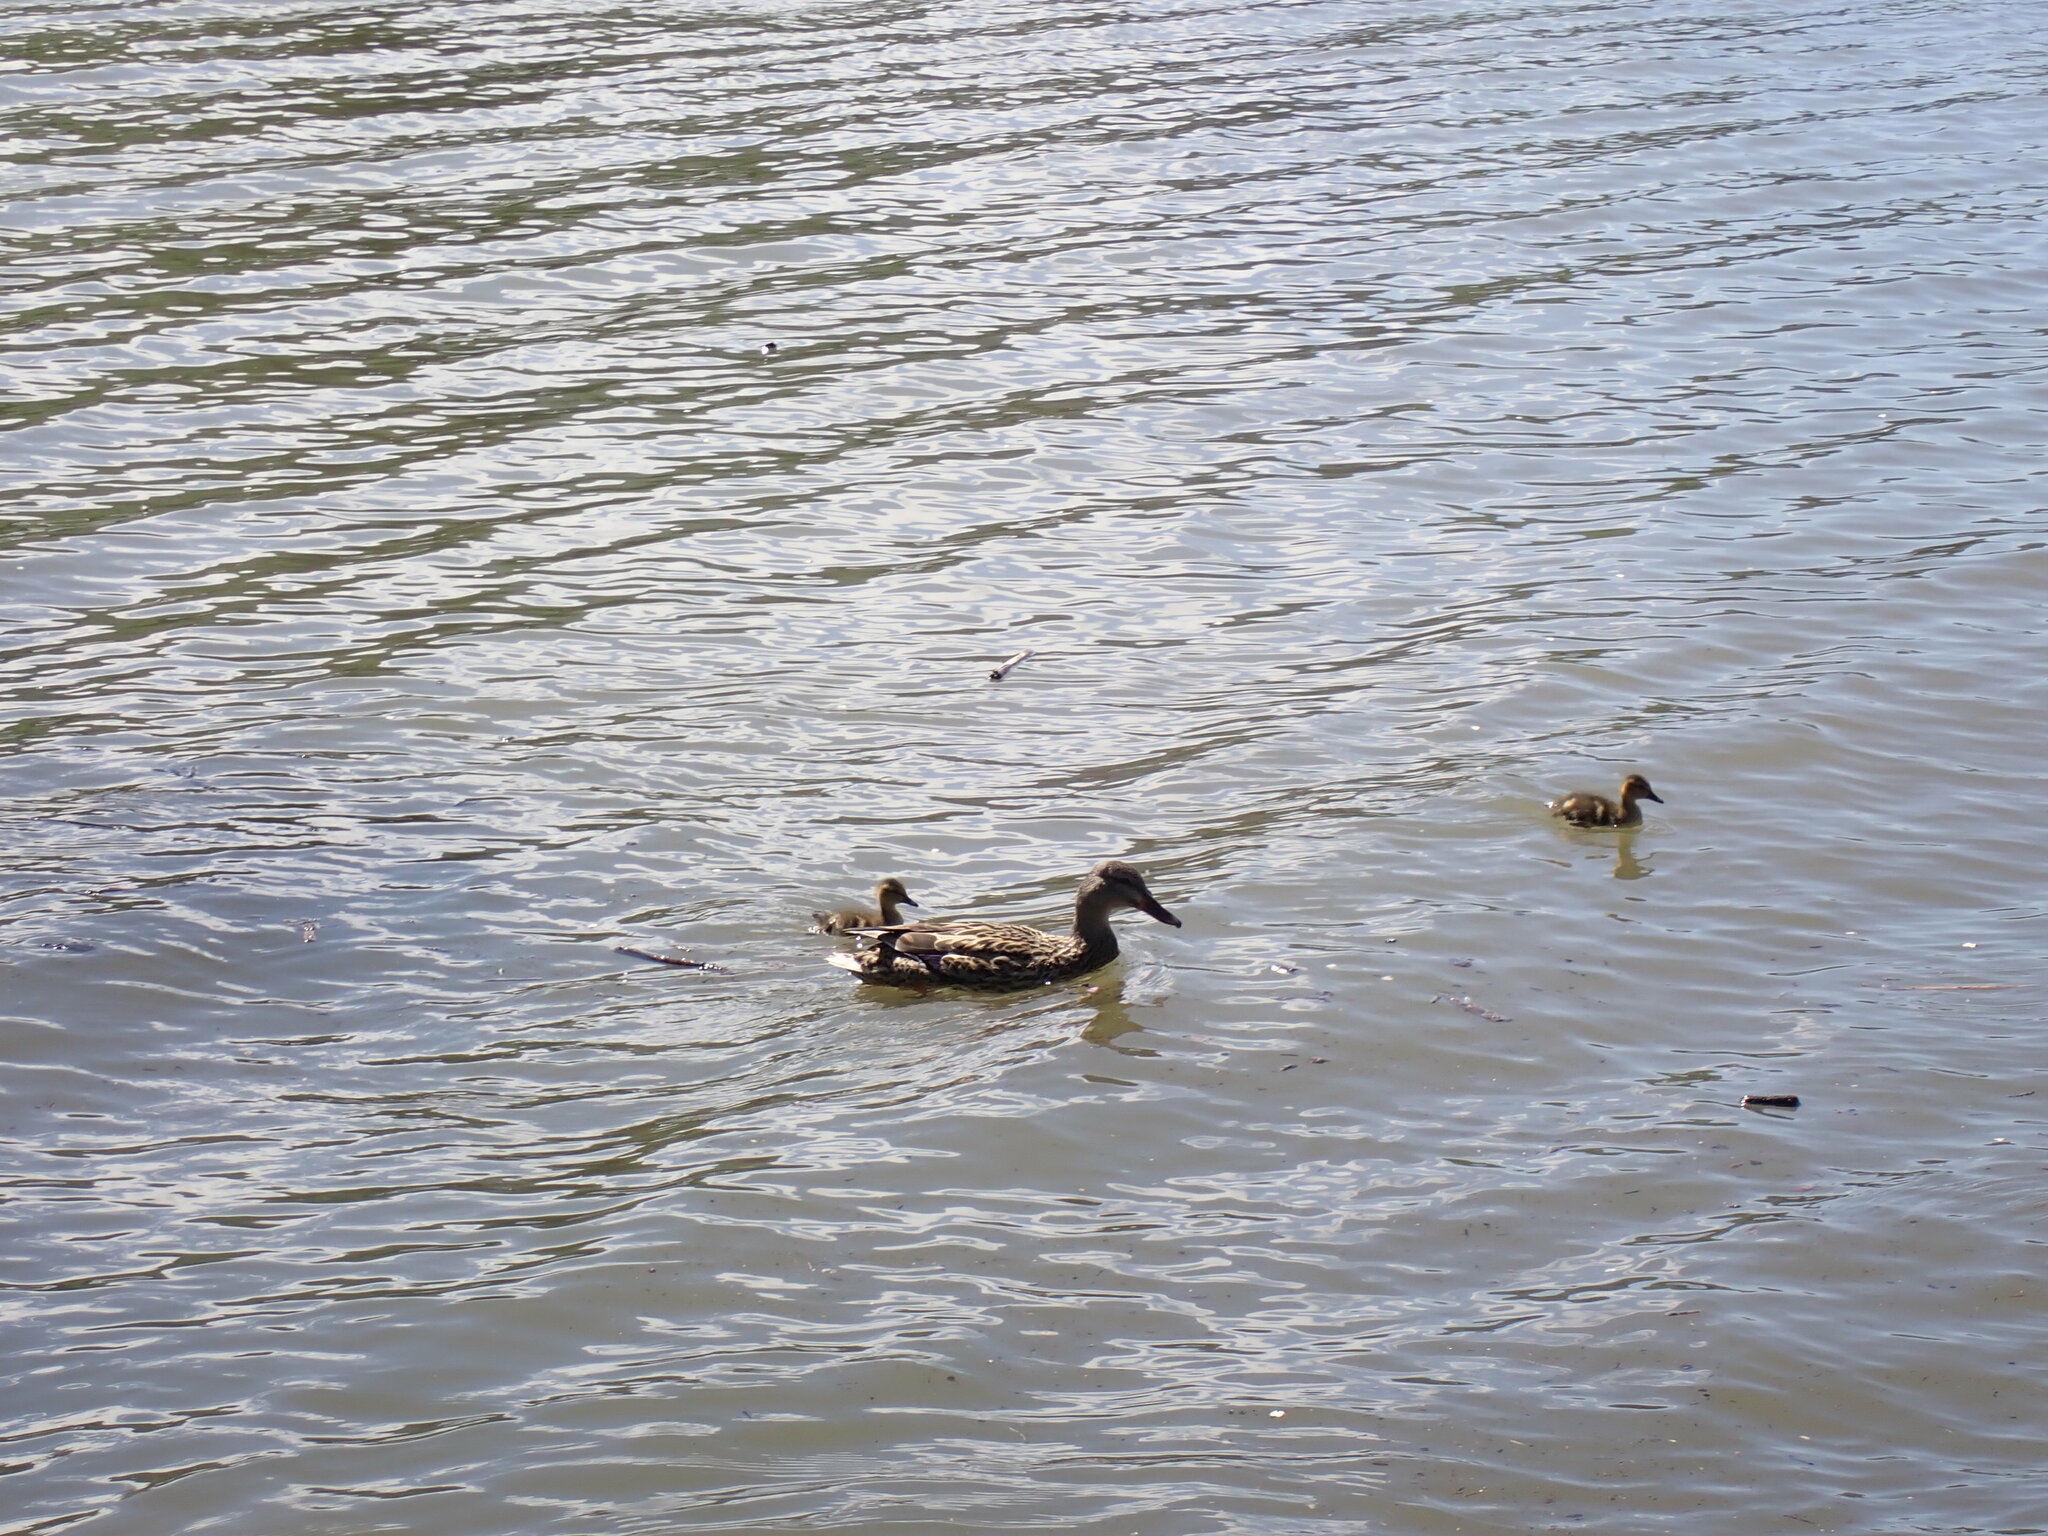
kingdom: Animalia
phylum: Chordata
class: Aves
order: Anseriformes
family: Anatidae
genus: Anas
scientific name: Anas platyrhynchos
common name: Mallard
